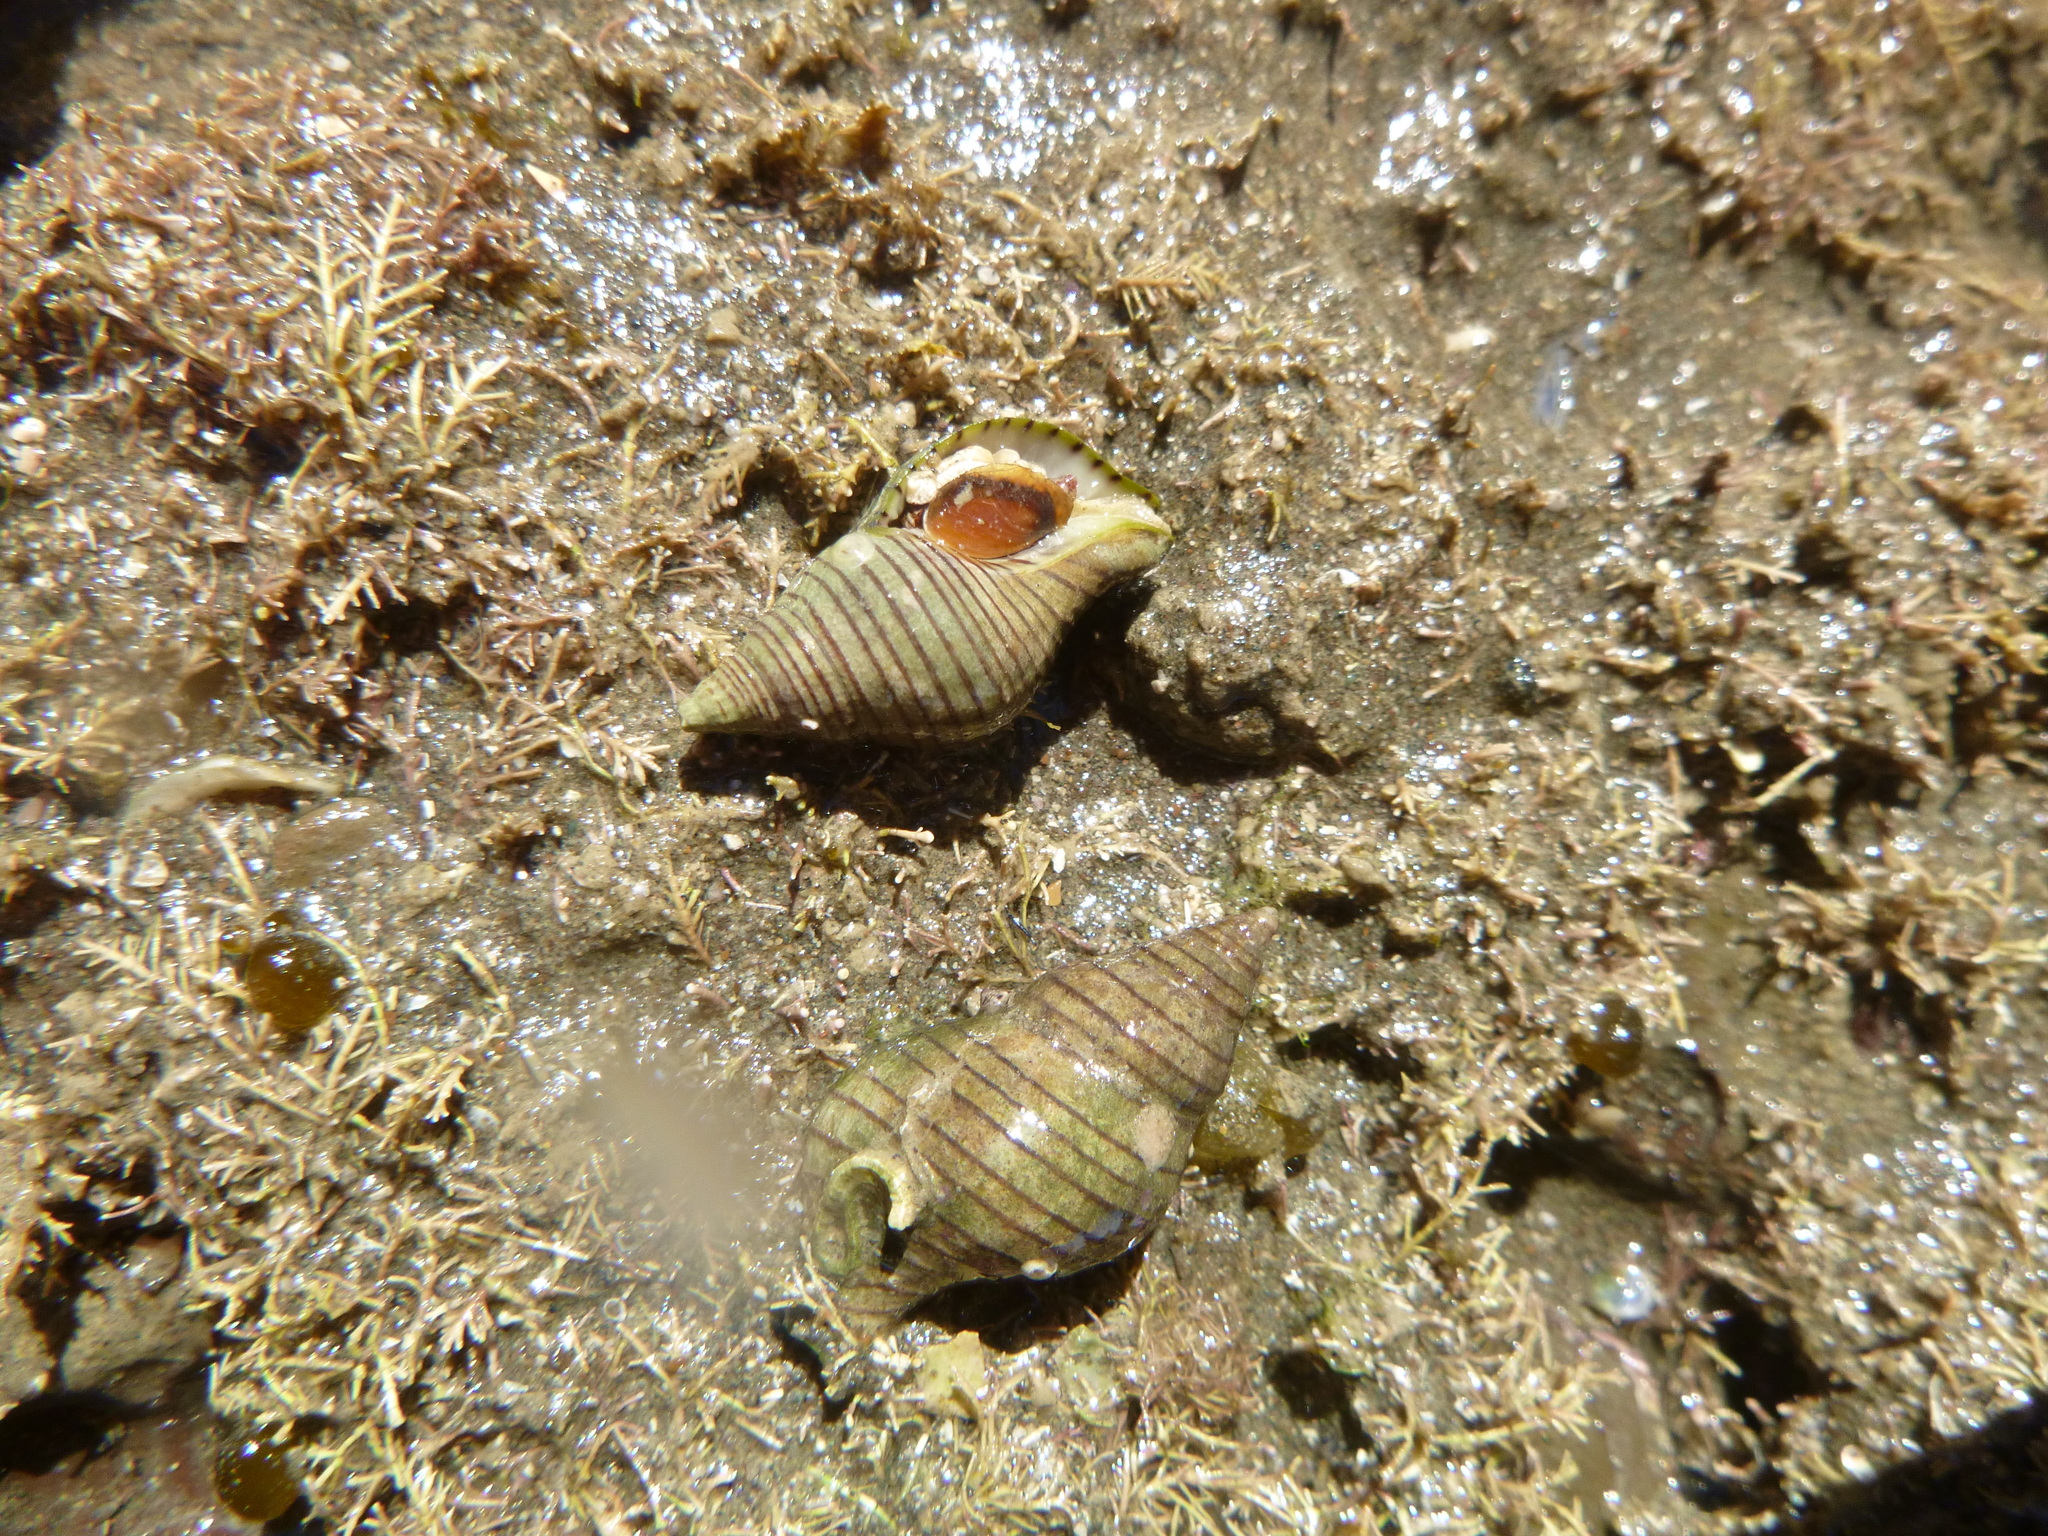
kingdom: Animalia
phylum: Mollusca
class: Gastropoda
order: Neogastropoda
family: Tudiclidae
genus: Buccinulum
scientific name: Buccinulum linea
